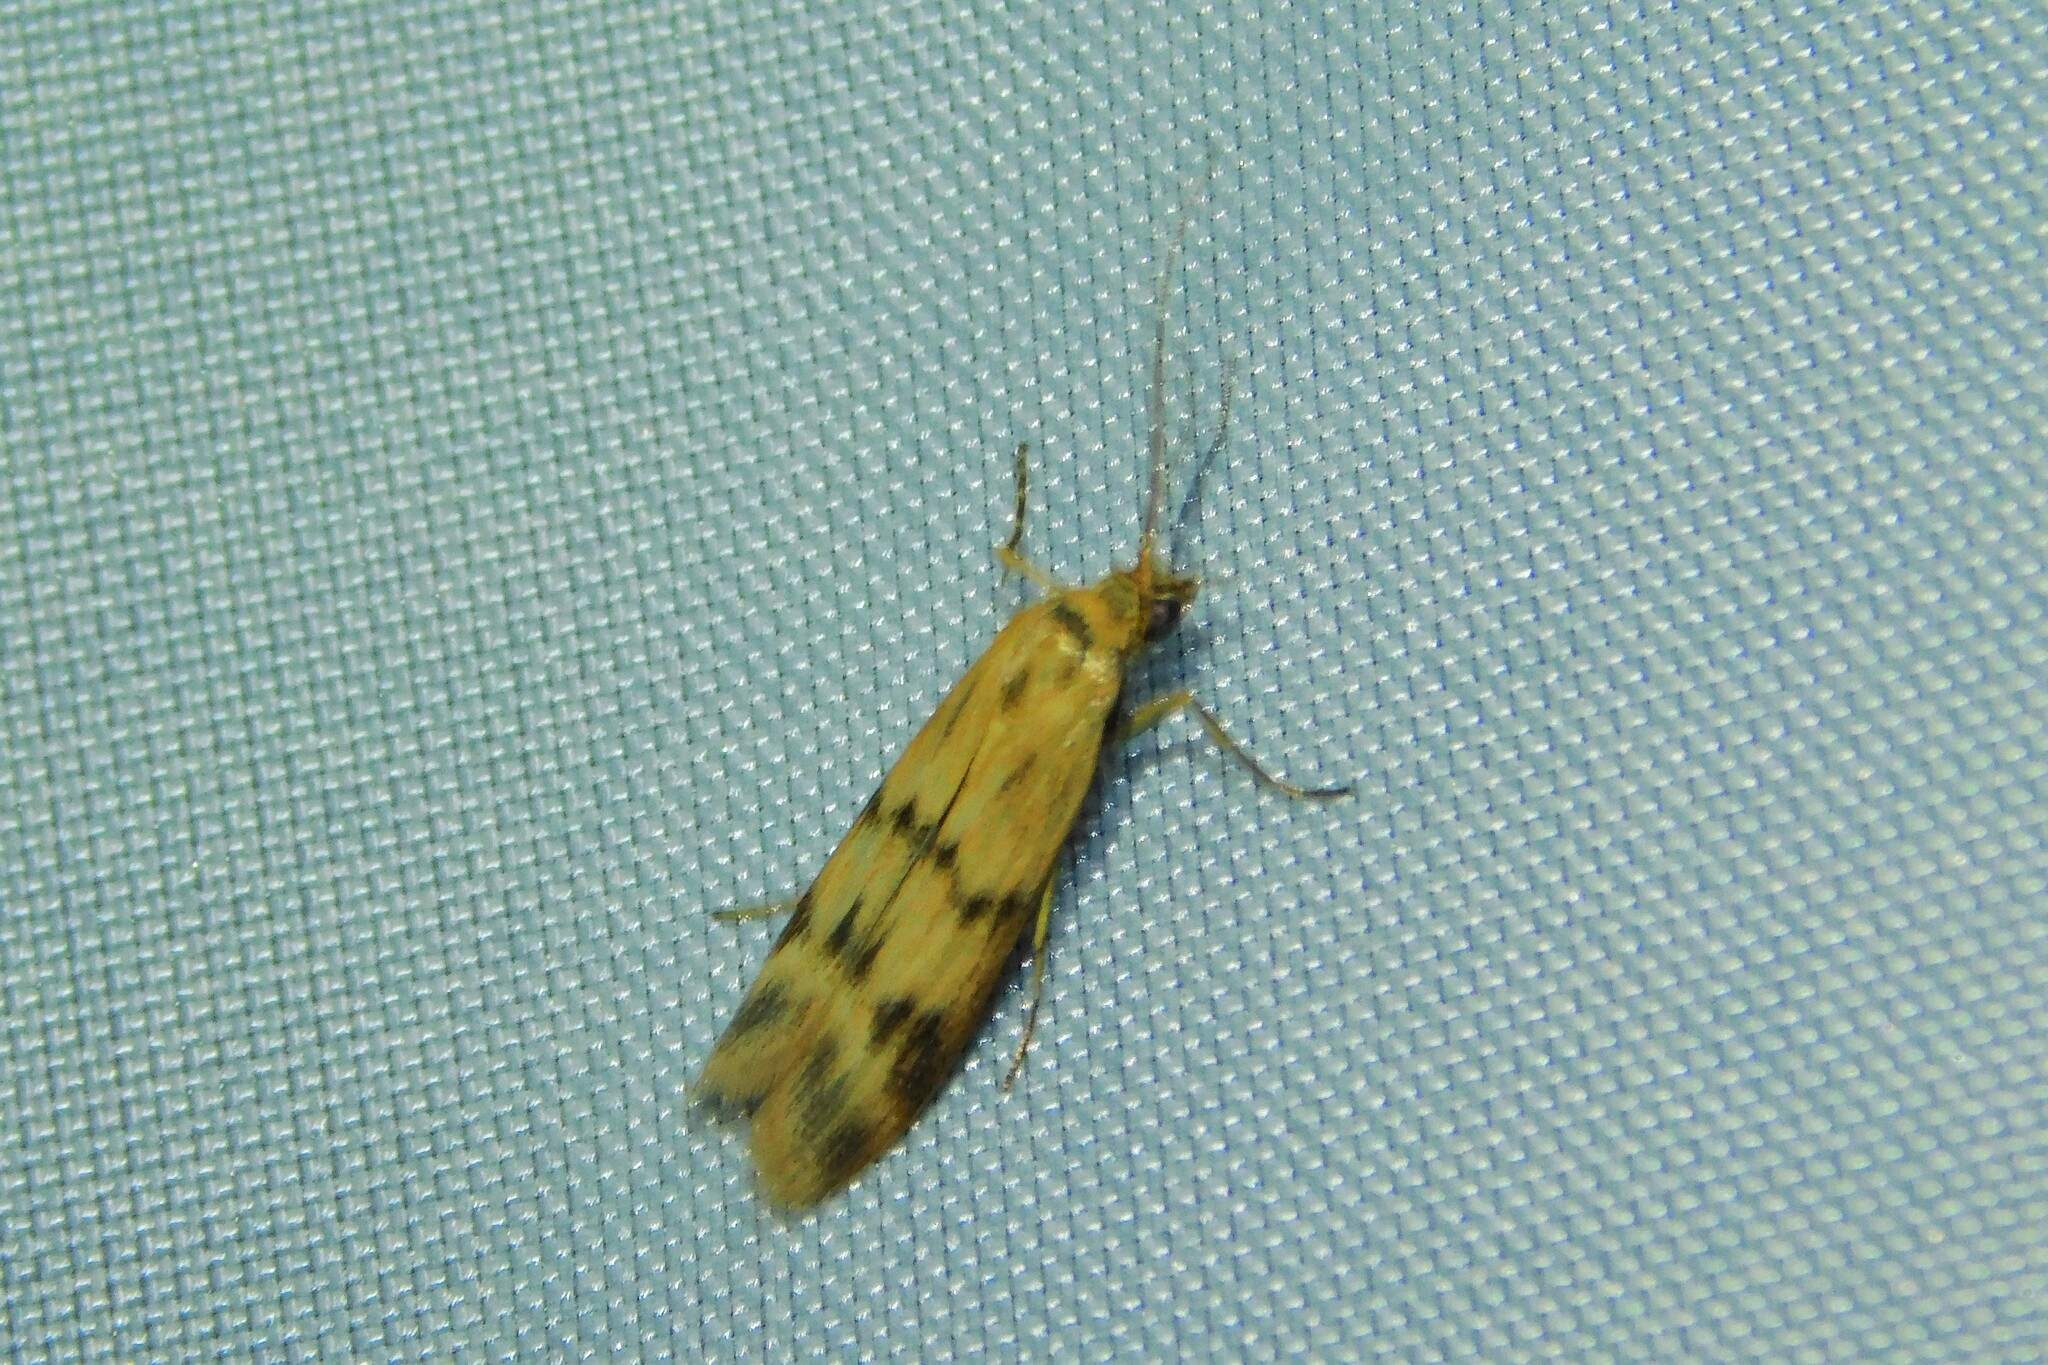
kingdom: Animalia
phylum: Arthropoda
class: Insecta
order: Lepidoptera
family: Pyralidae
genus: Homoeosoma
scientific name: Homoeosoma sinuella
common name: Twin-barred knot-horn
